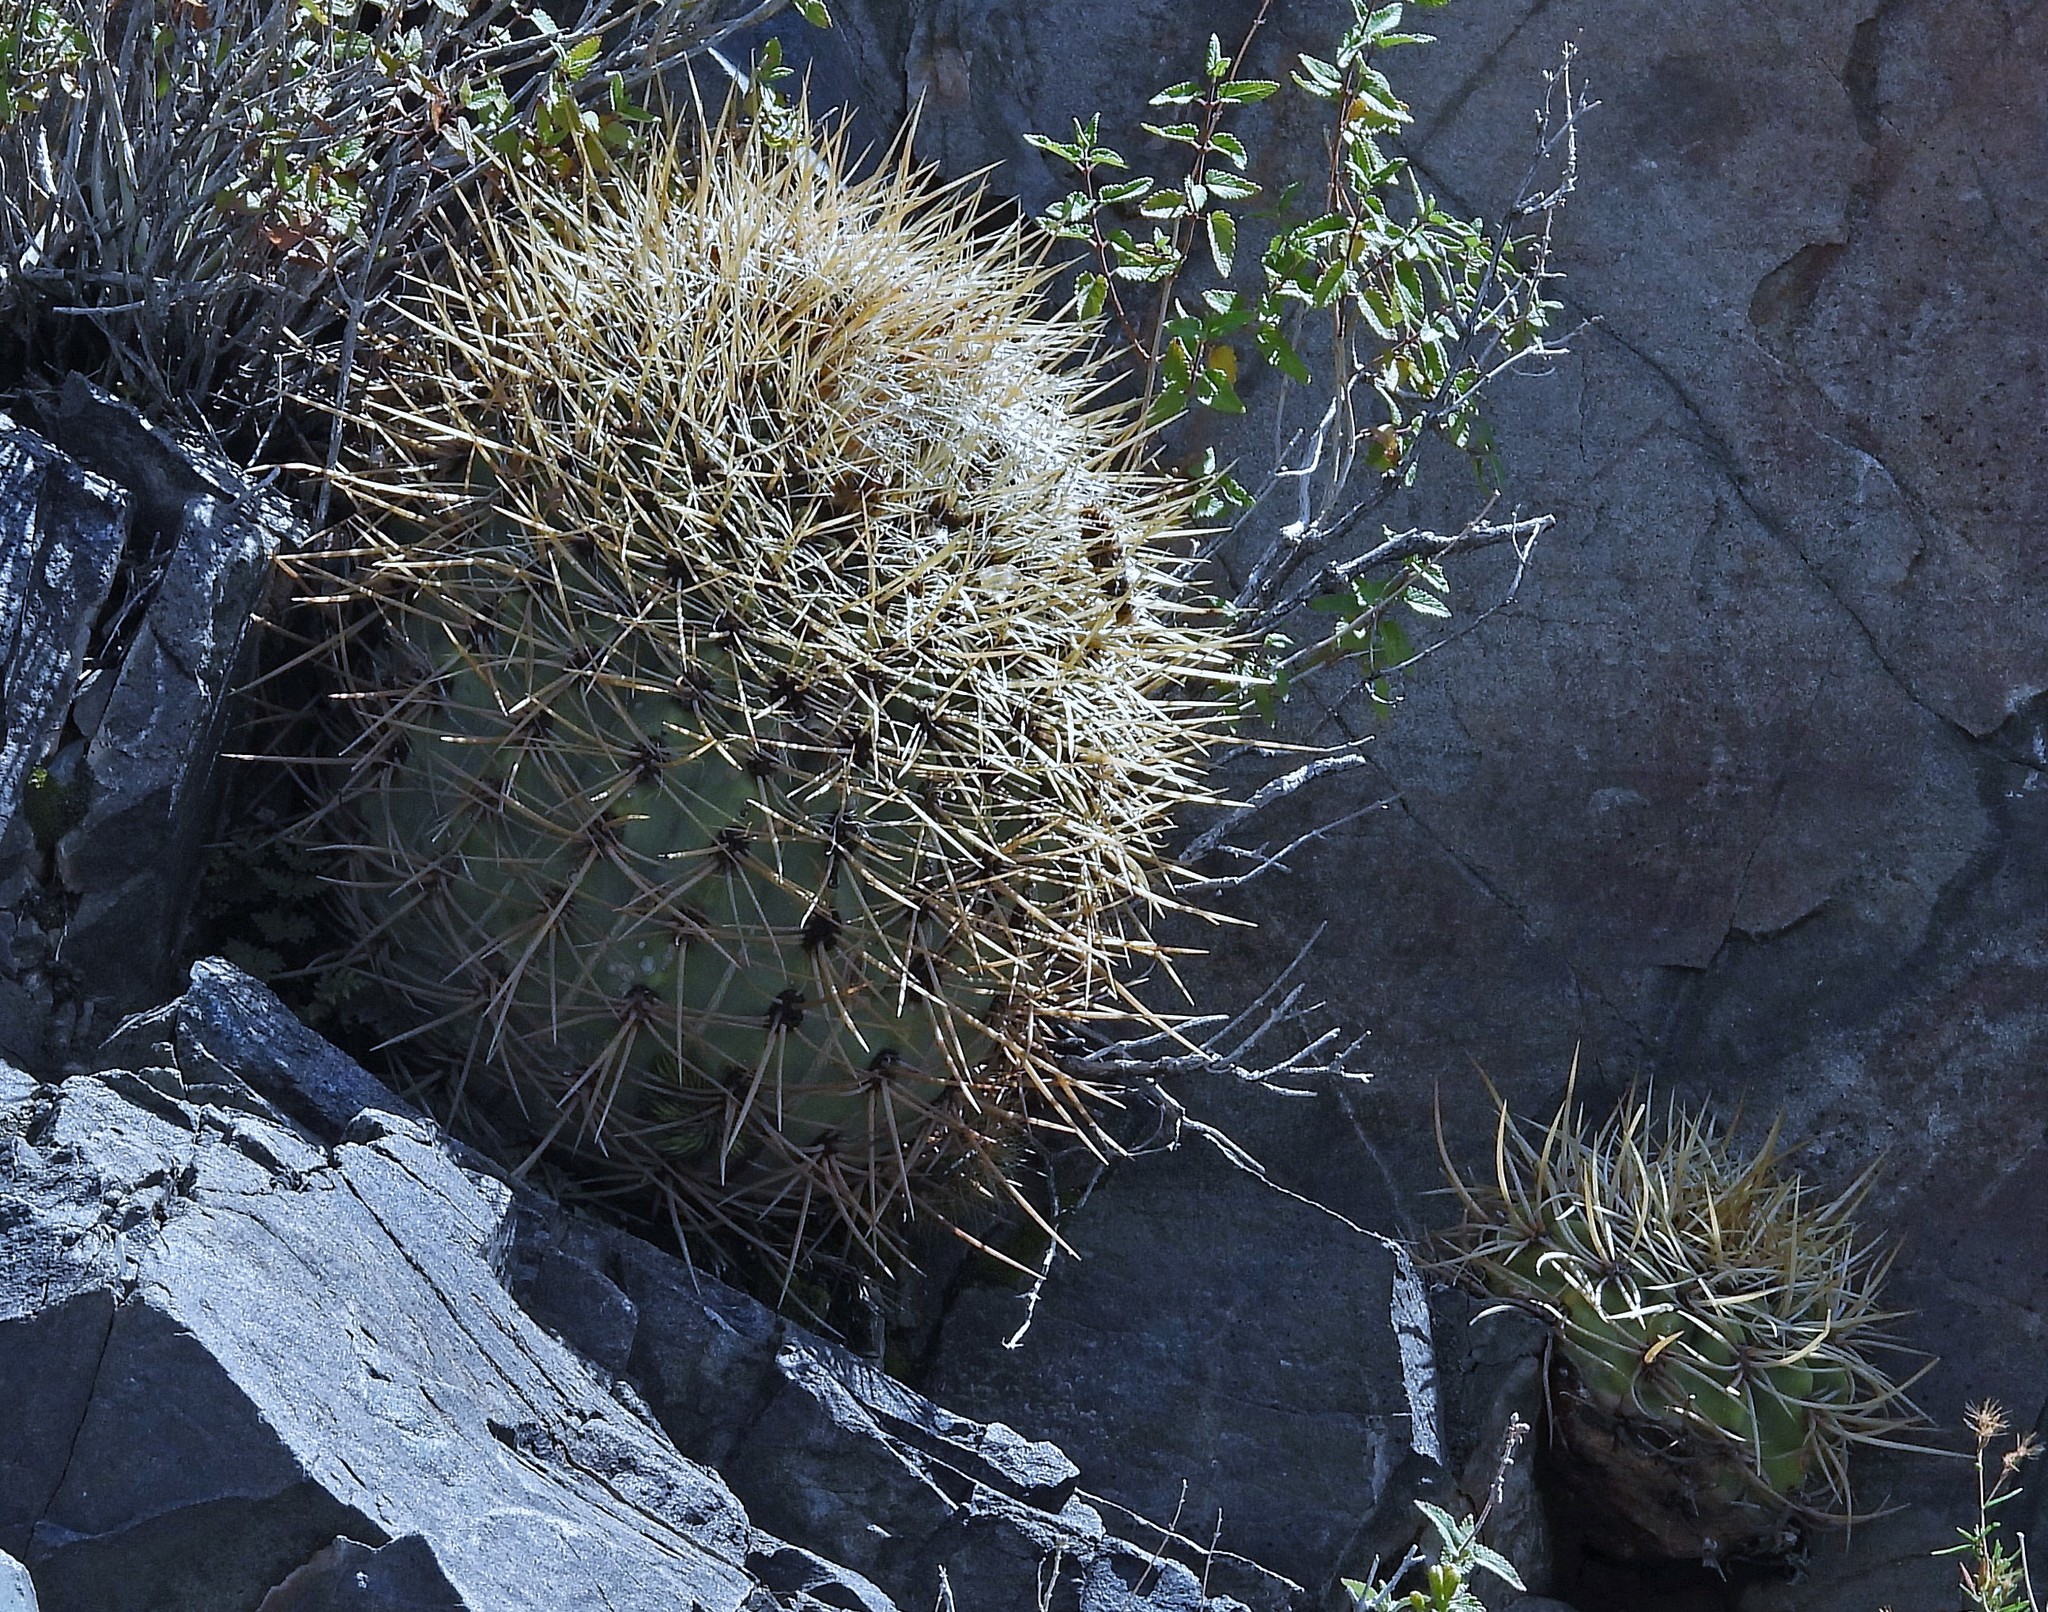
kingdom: Plantae
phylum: Tracheophyta
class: Magnoliopsida
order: Caryophyllales
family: Cactaceae
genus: Denmoza
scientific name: Denmoza rhodacantha
